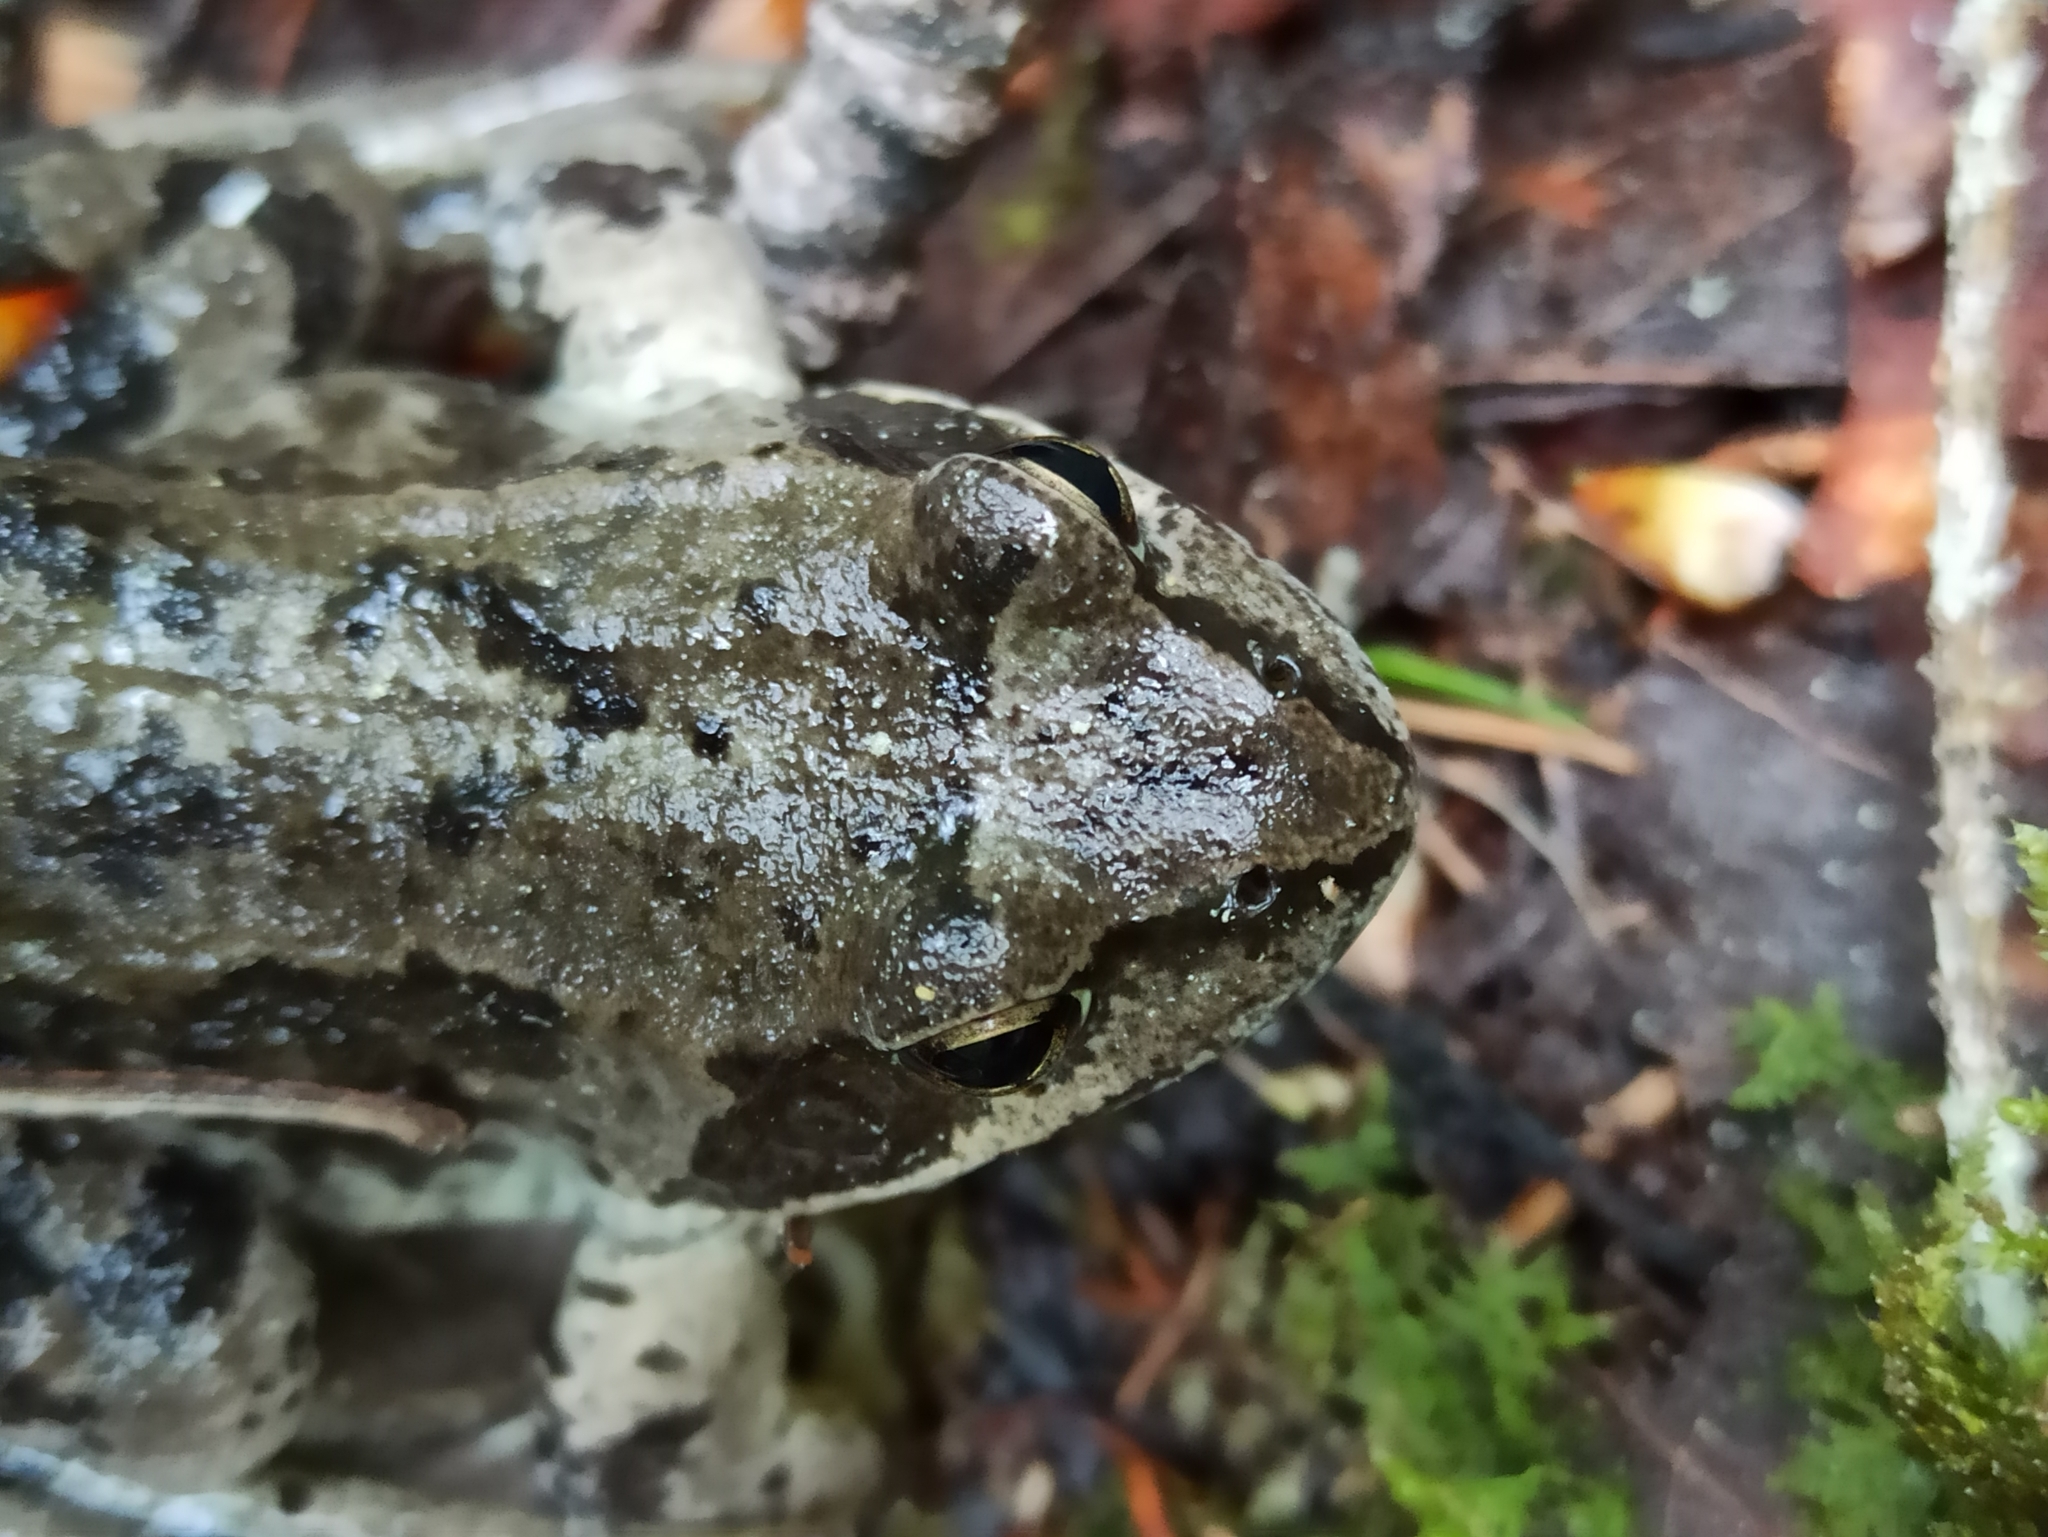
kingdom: Animalia
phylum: Chordata
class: Amphibia
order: Anura
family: Ranidae
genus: Rana
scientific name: Rana temporaria
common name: Common frog
